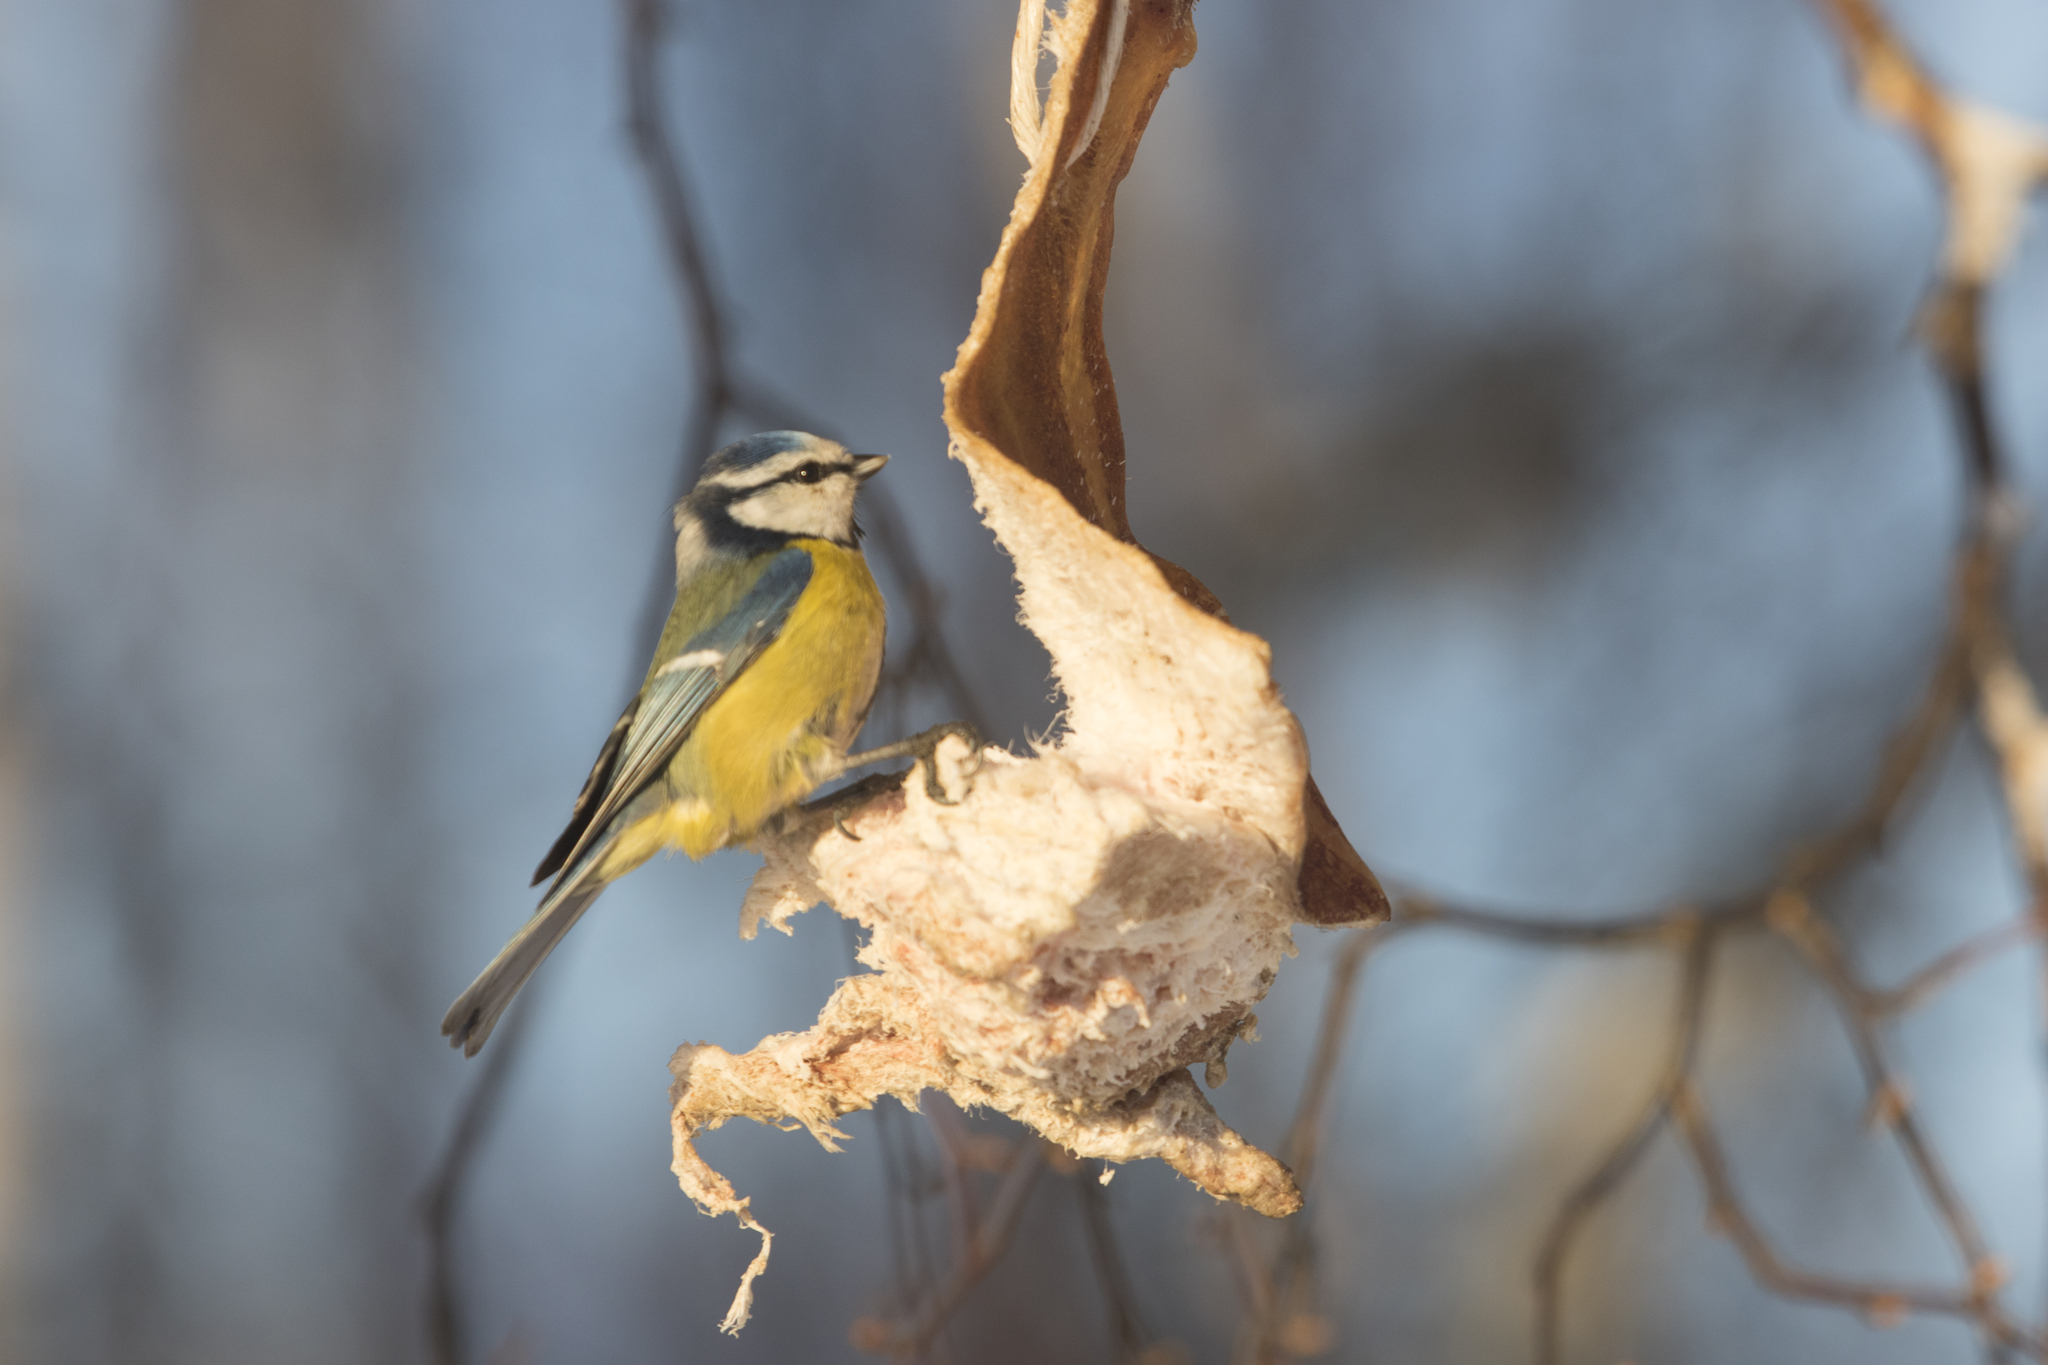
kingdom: Animalia
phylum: Chordata
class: Aves
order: Passeriformes
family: Paridae
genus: Cyanistes
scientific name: Cyanistes caeruleus
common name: Eurasian blue tit
